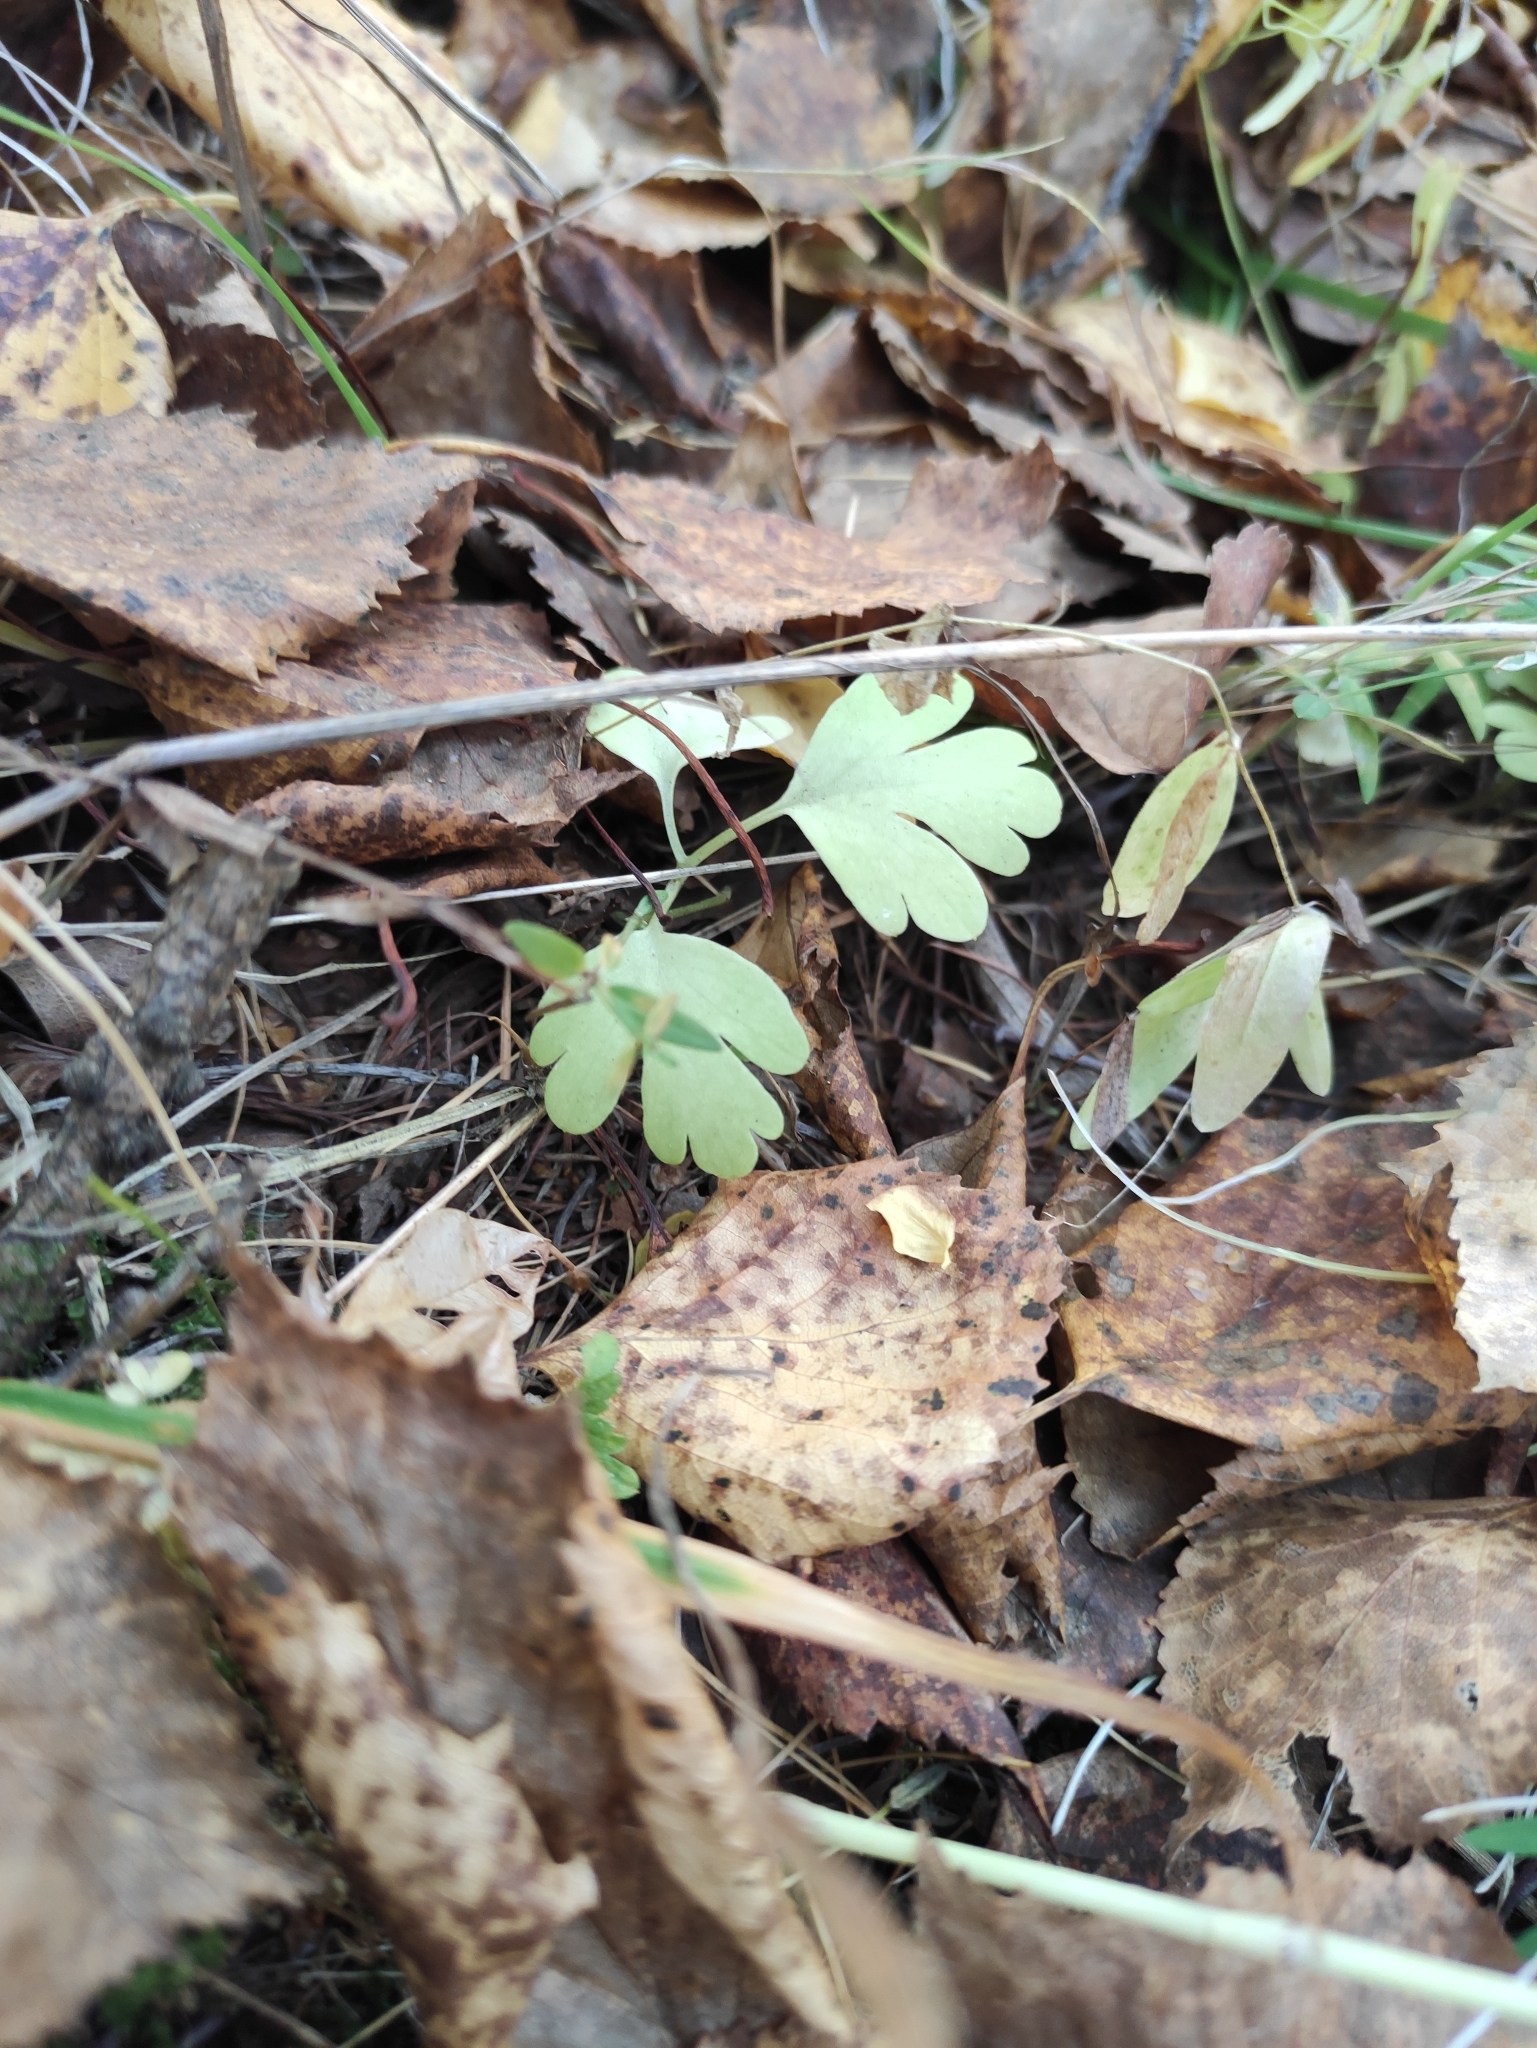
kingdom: Plantae
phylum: Tracheophyta
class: Magnoliopsida
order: Dipsacales
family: Viburnaceae
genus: Adoxa
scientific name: Adoxa moschatellina
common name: Moschatel
